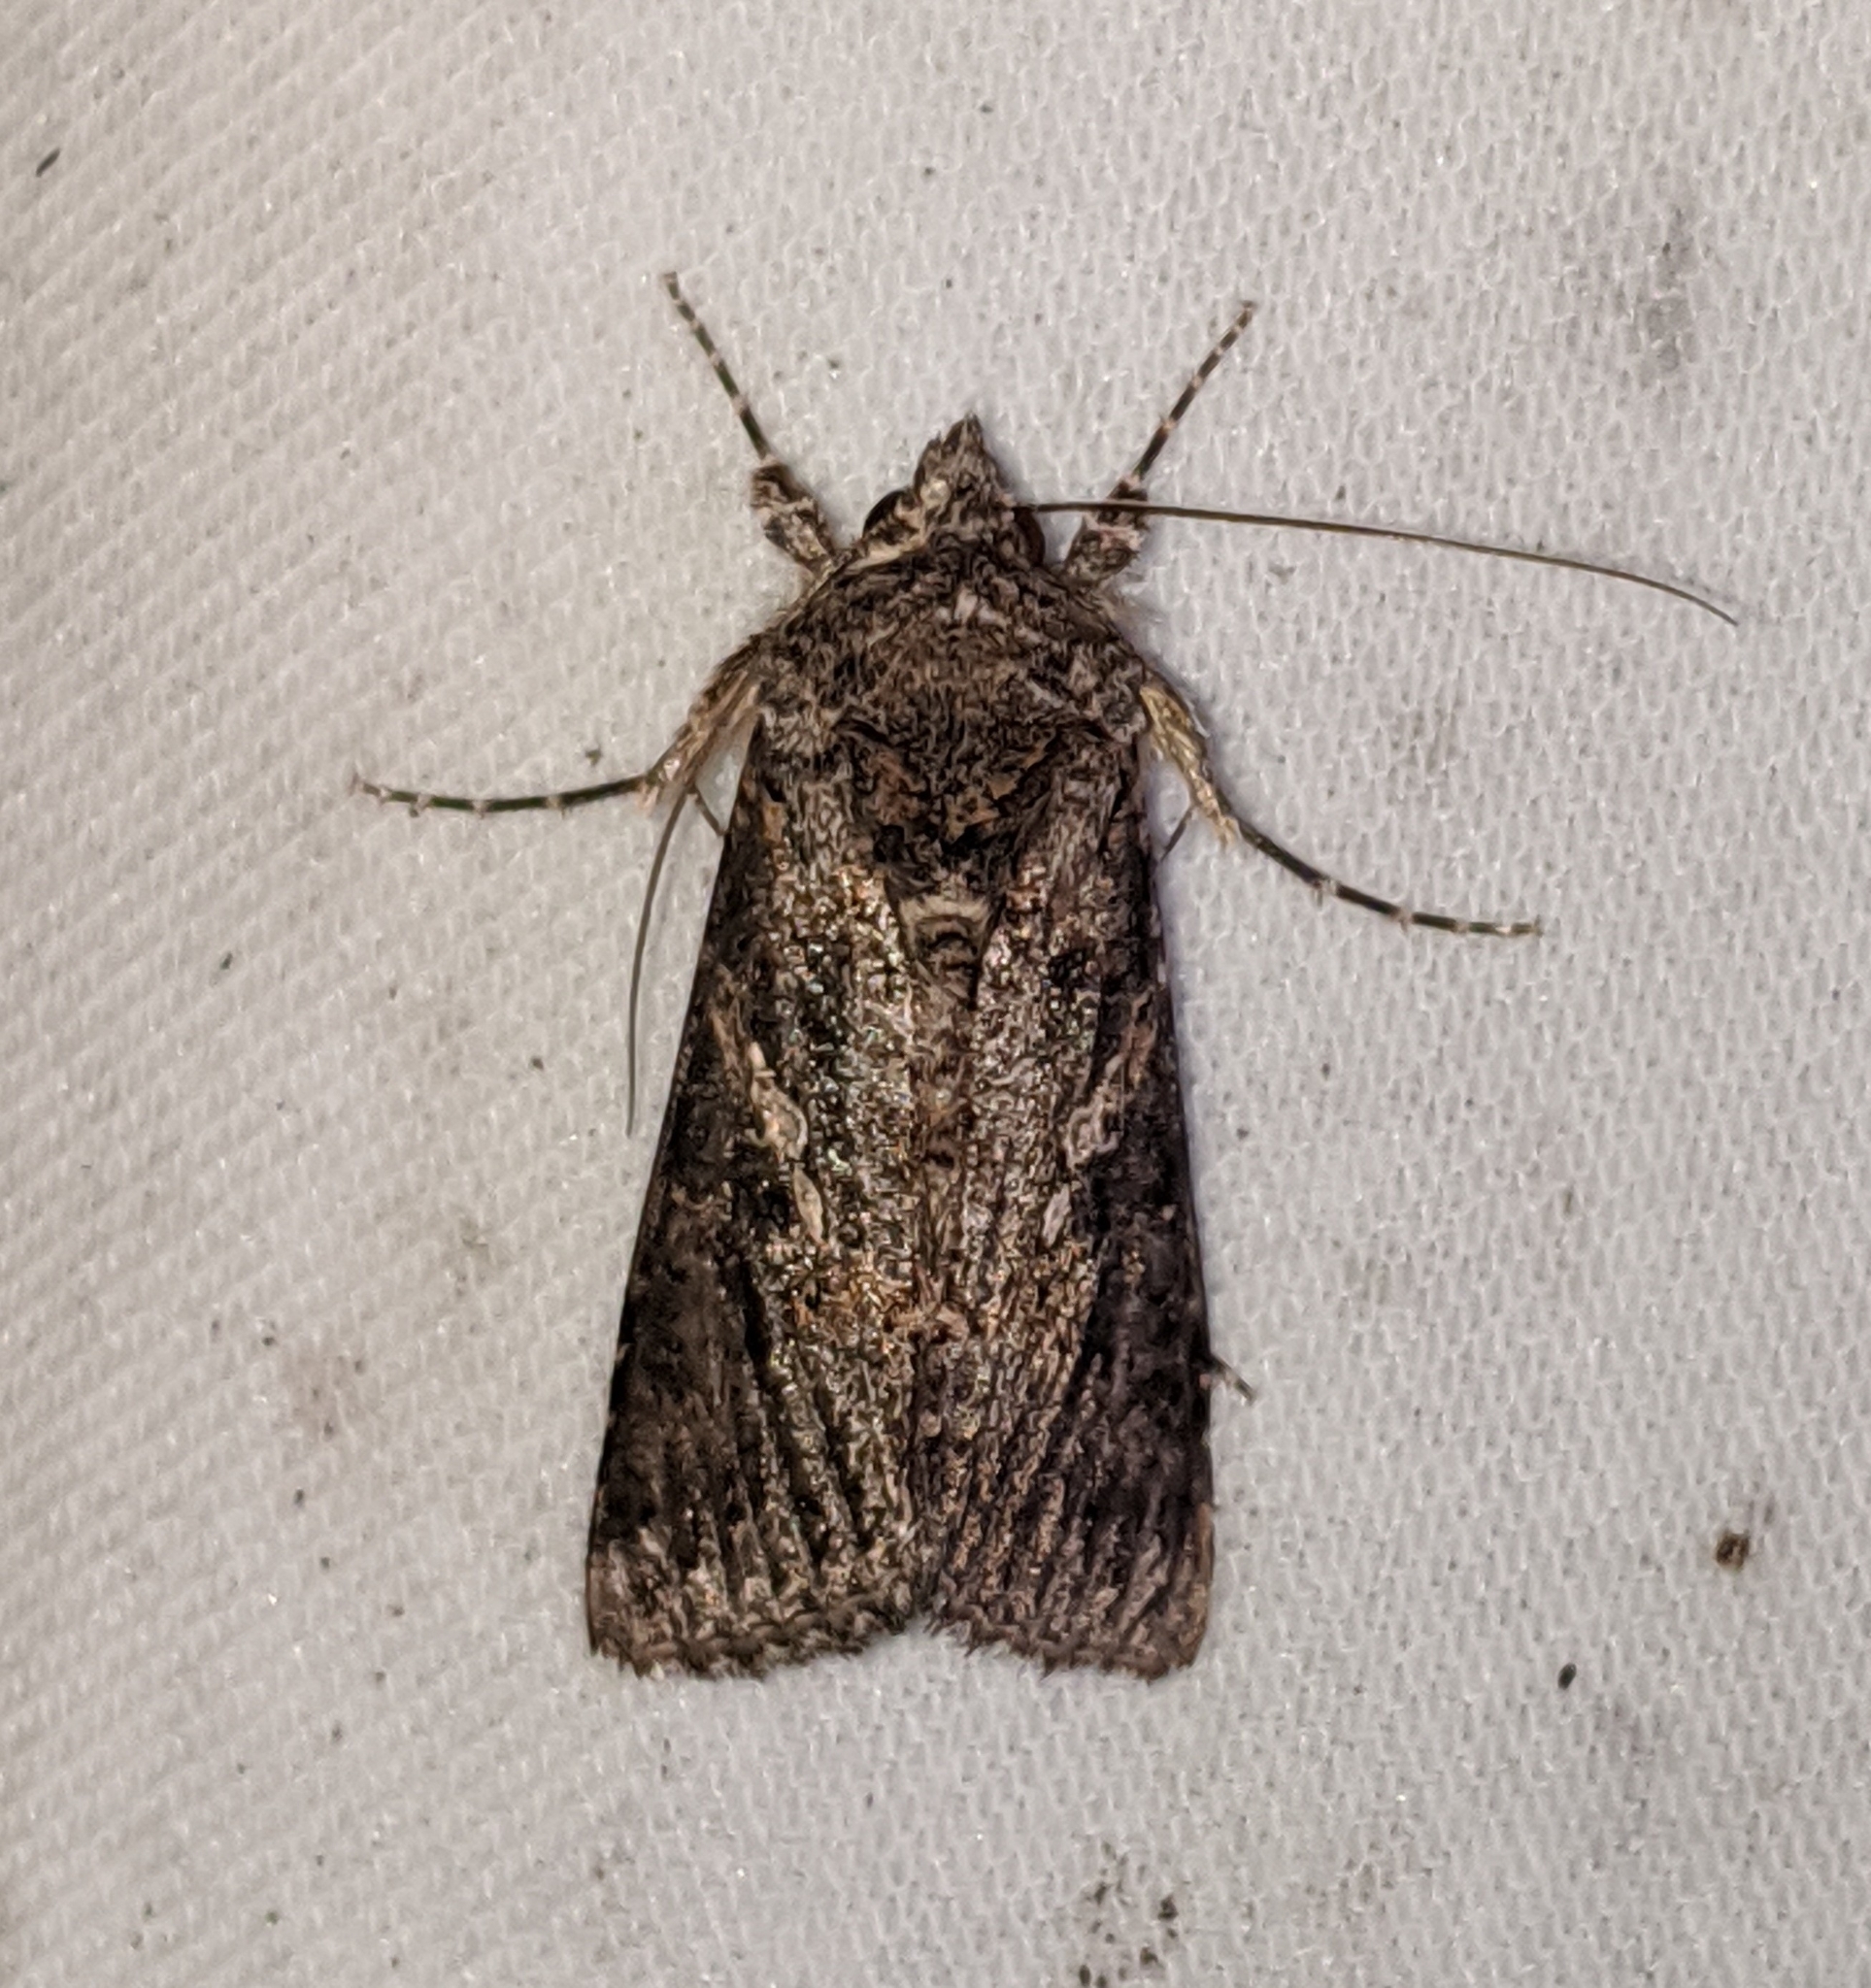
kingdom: Animalia
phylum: Arthropoda
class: Insecta
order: Lepidoptera
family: Noctuidae
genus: Trichoplusia
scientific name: Trichoplusia ni
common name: Ni moth
